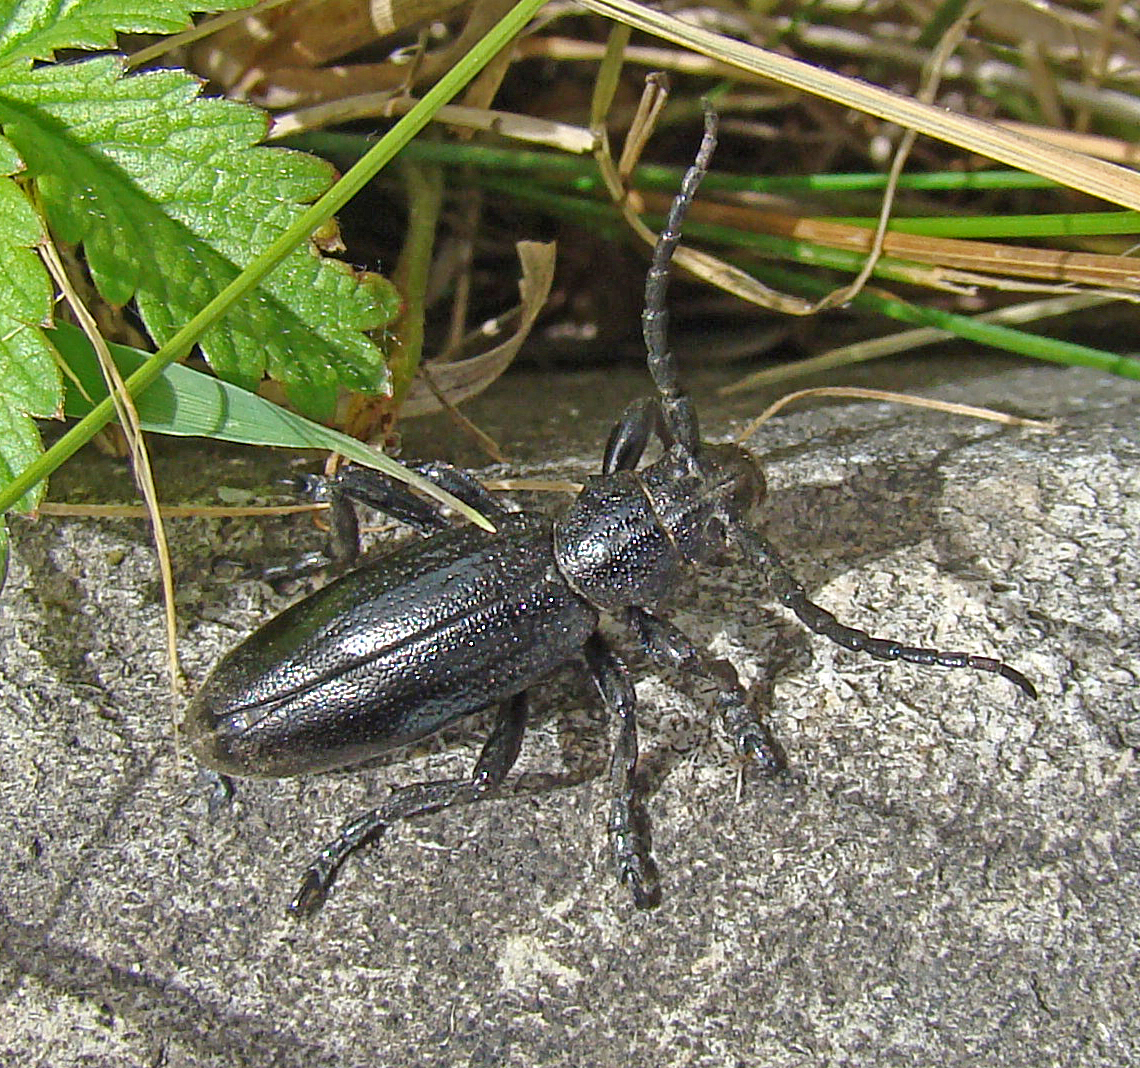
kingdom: Animalia
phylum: Arthropoda
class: Insecta
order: Coleoptera
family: Cerambycidae
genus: Dorcadion
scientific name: Dorcadion carinatum
